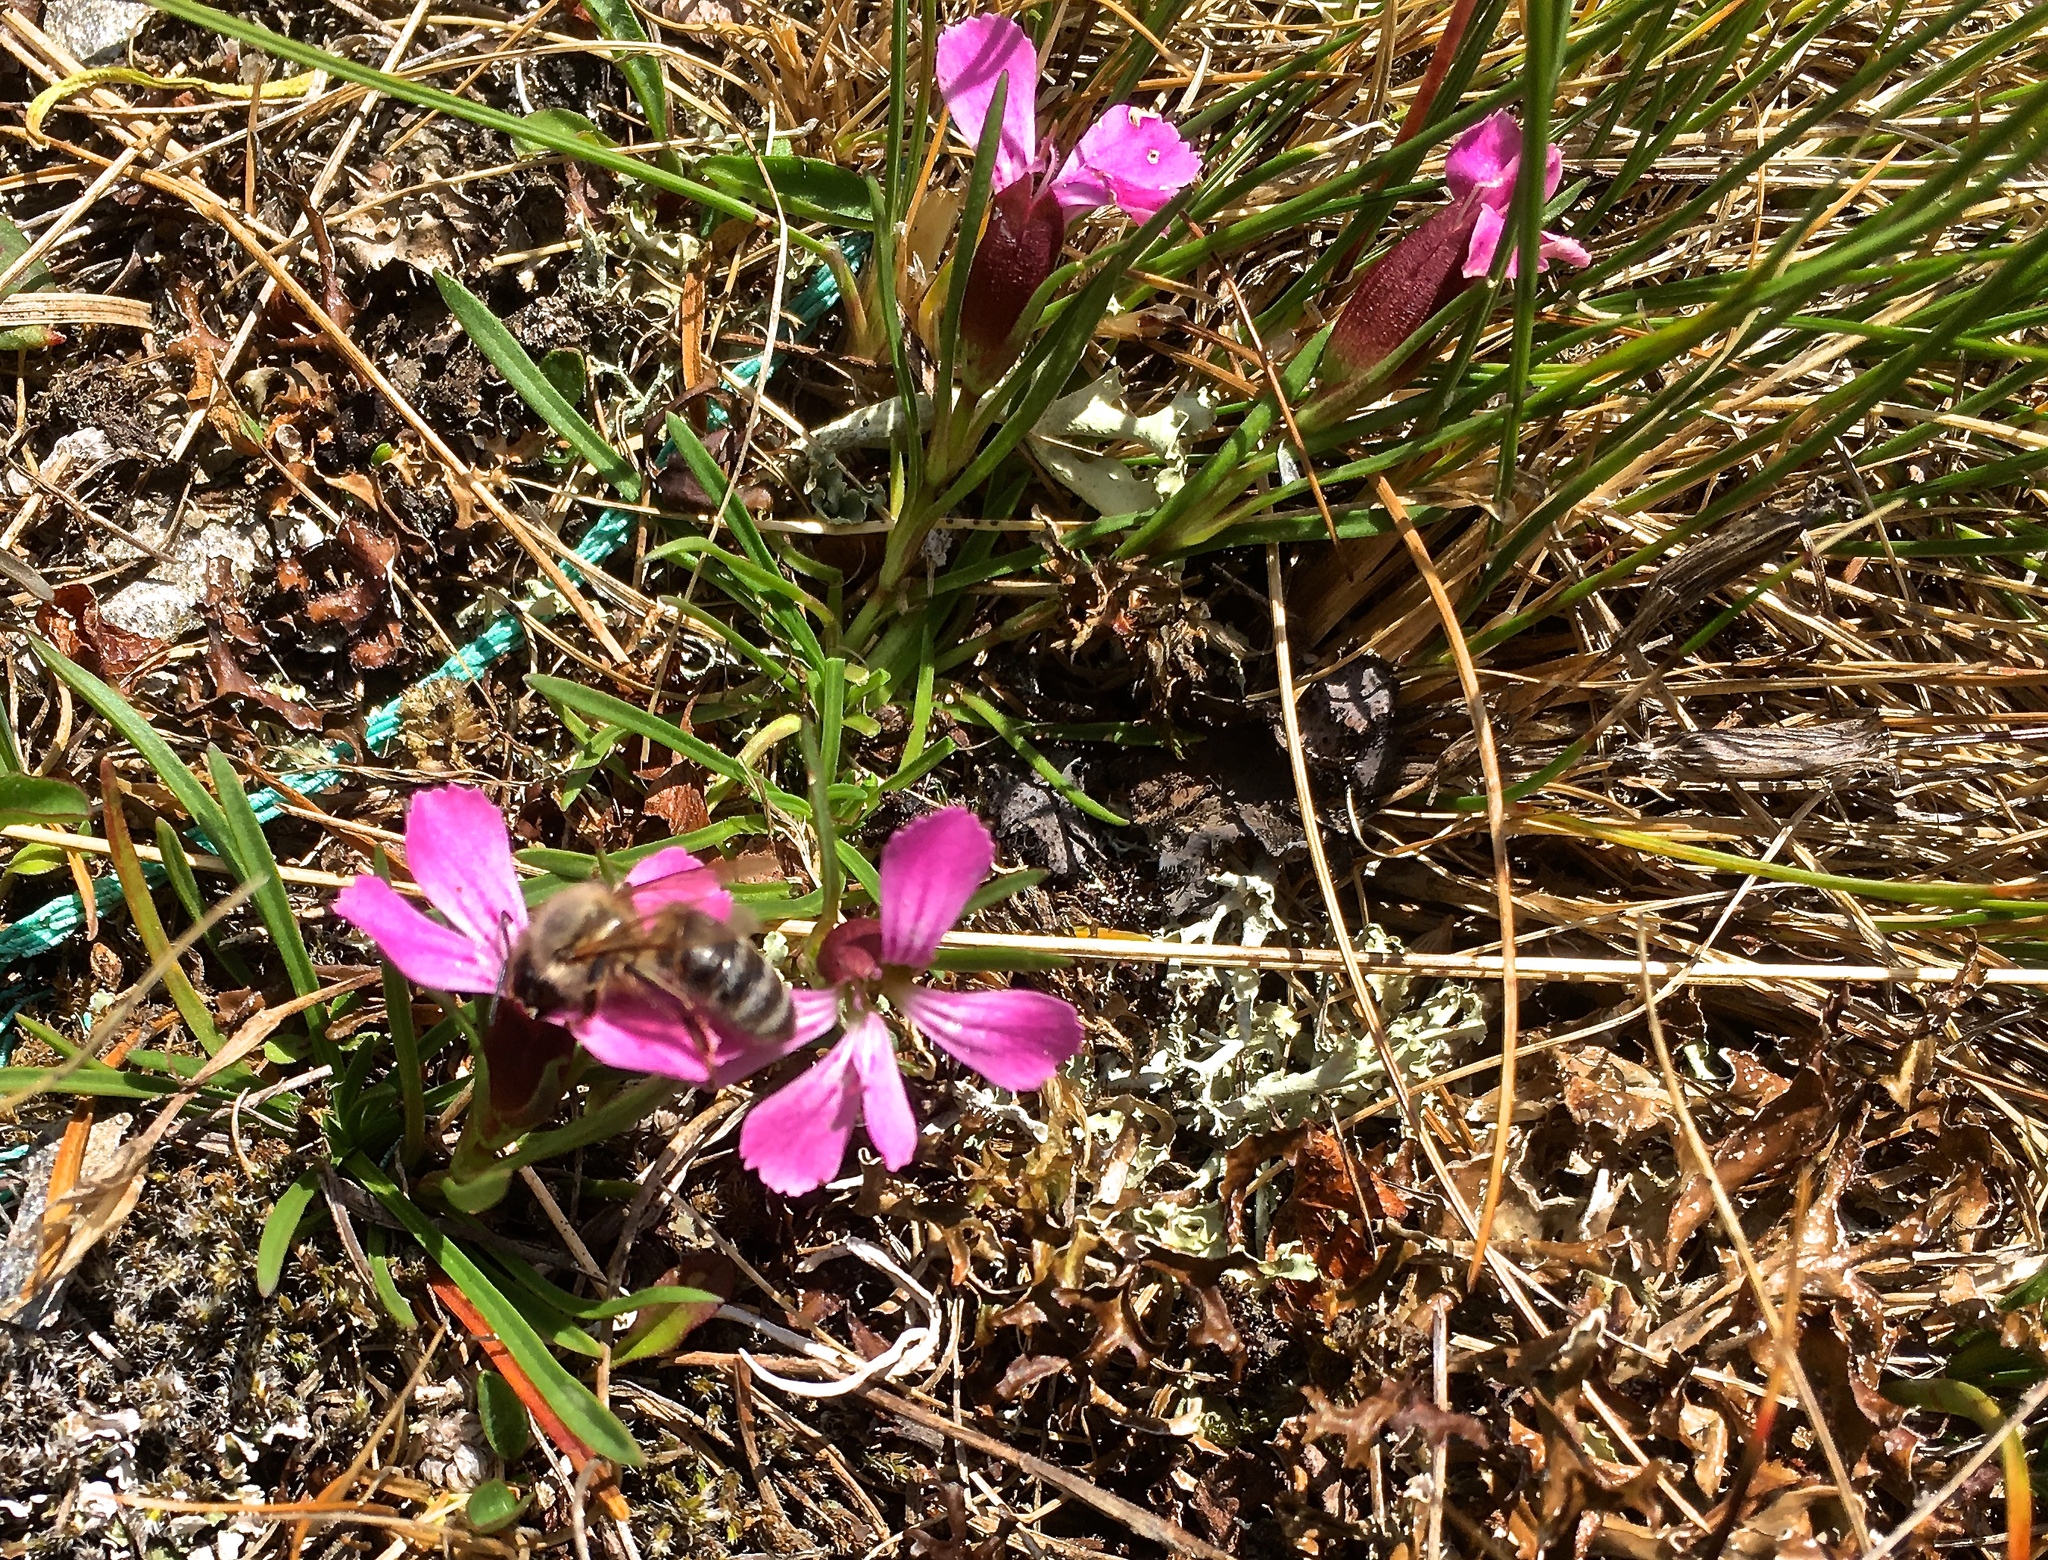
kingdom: Plantae
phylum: Tracheophyta
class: Magnoliopsida
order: Caryophyllales
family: Caryophyllaceae
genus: Dianthus
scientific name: Dianthus glacialis
